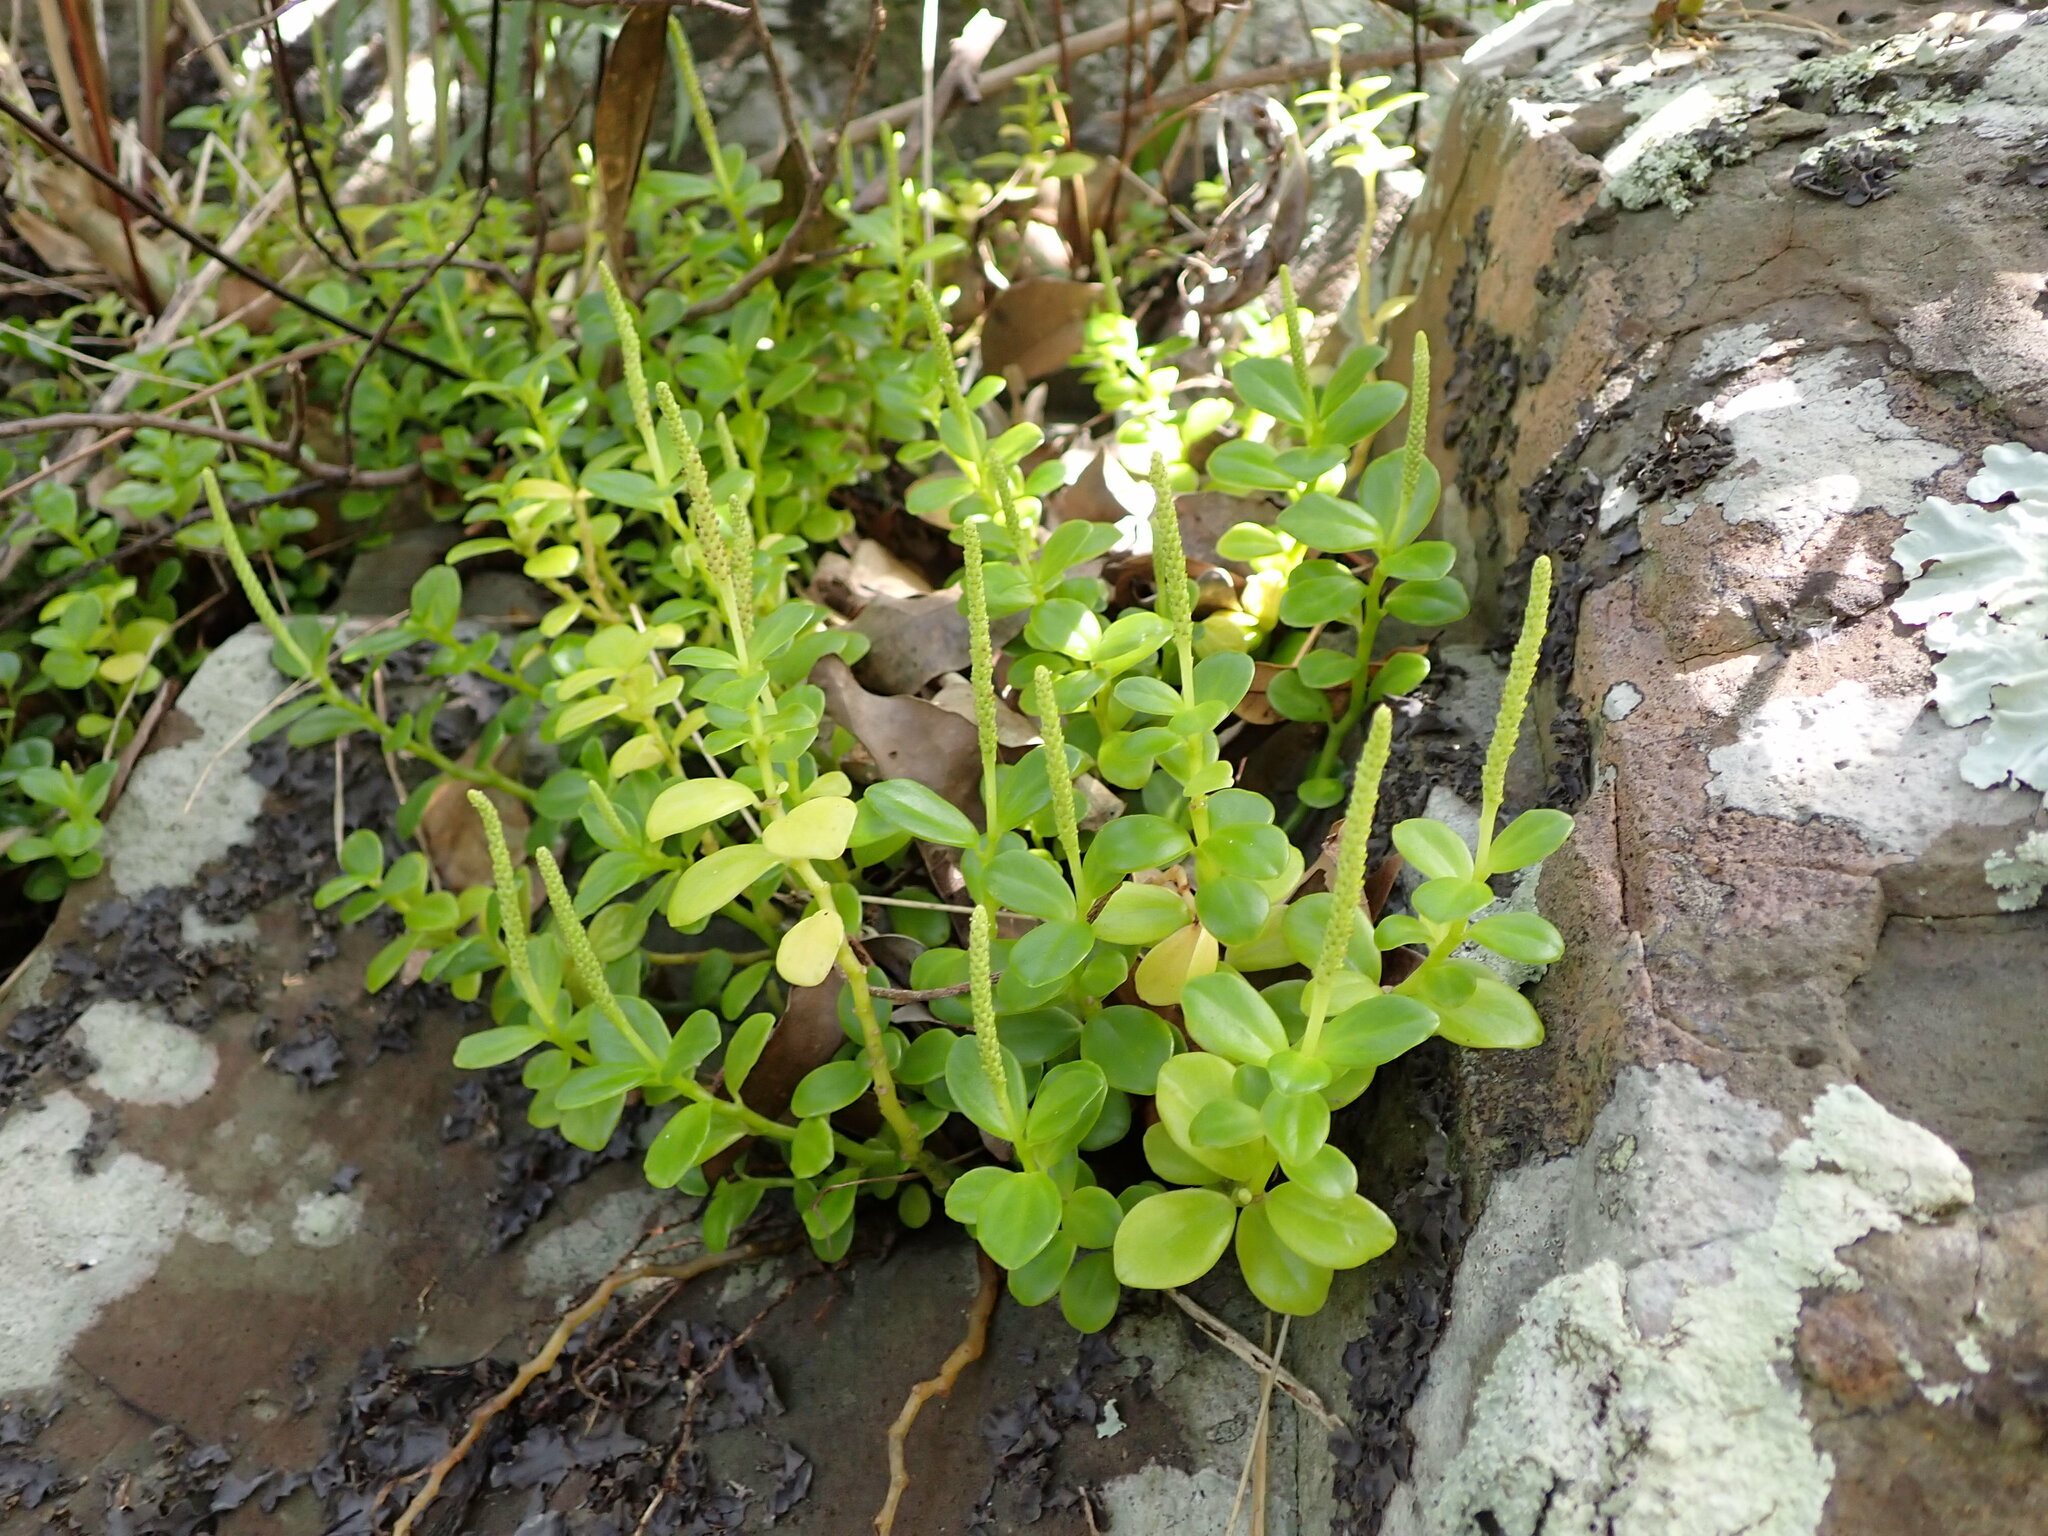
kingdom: Plantae
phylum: Tracheophyta
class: Magnoliopsida
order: Piperales
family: Piperaceae
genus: Peperomia
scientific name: Peperomia urvilleana
